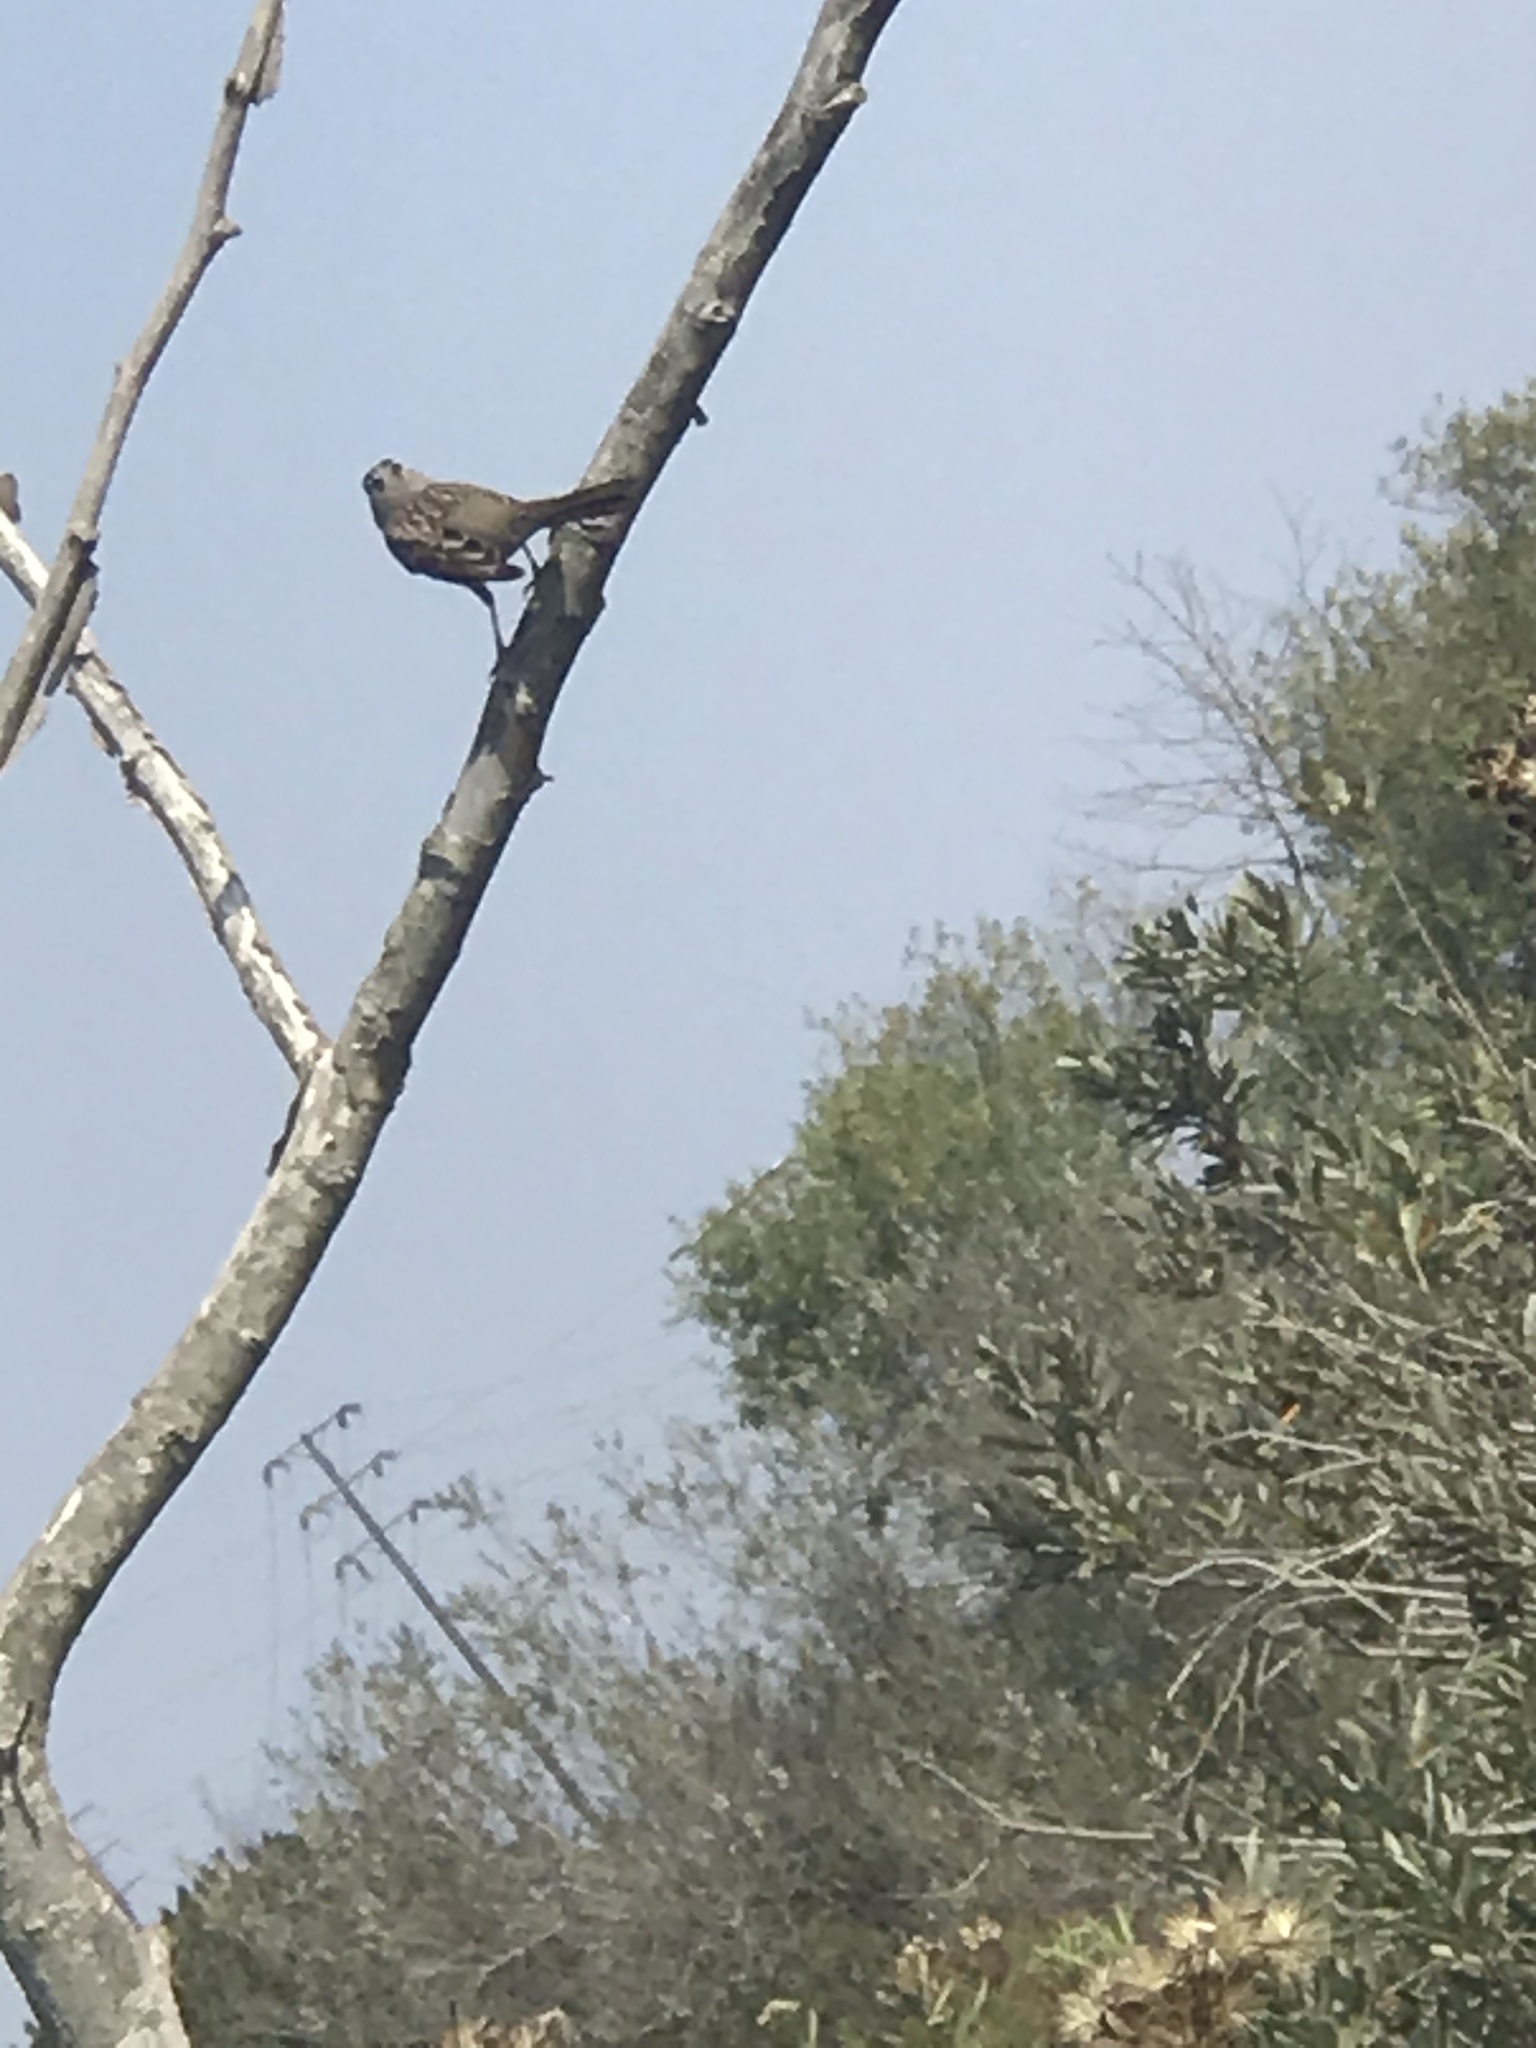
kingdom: Animalia
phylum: Chordata
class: Aves
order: Passeriformes
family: Passerellidae
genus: Zonotrichia
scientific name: Zonotrichia leucophrys
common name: White-crowned sparrow
